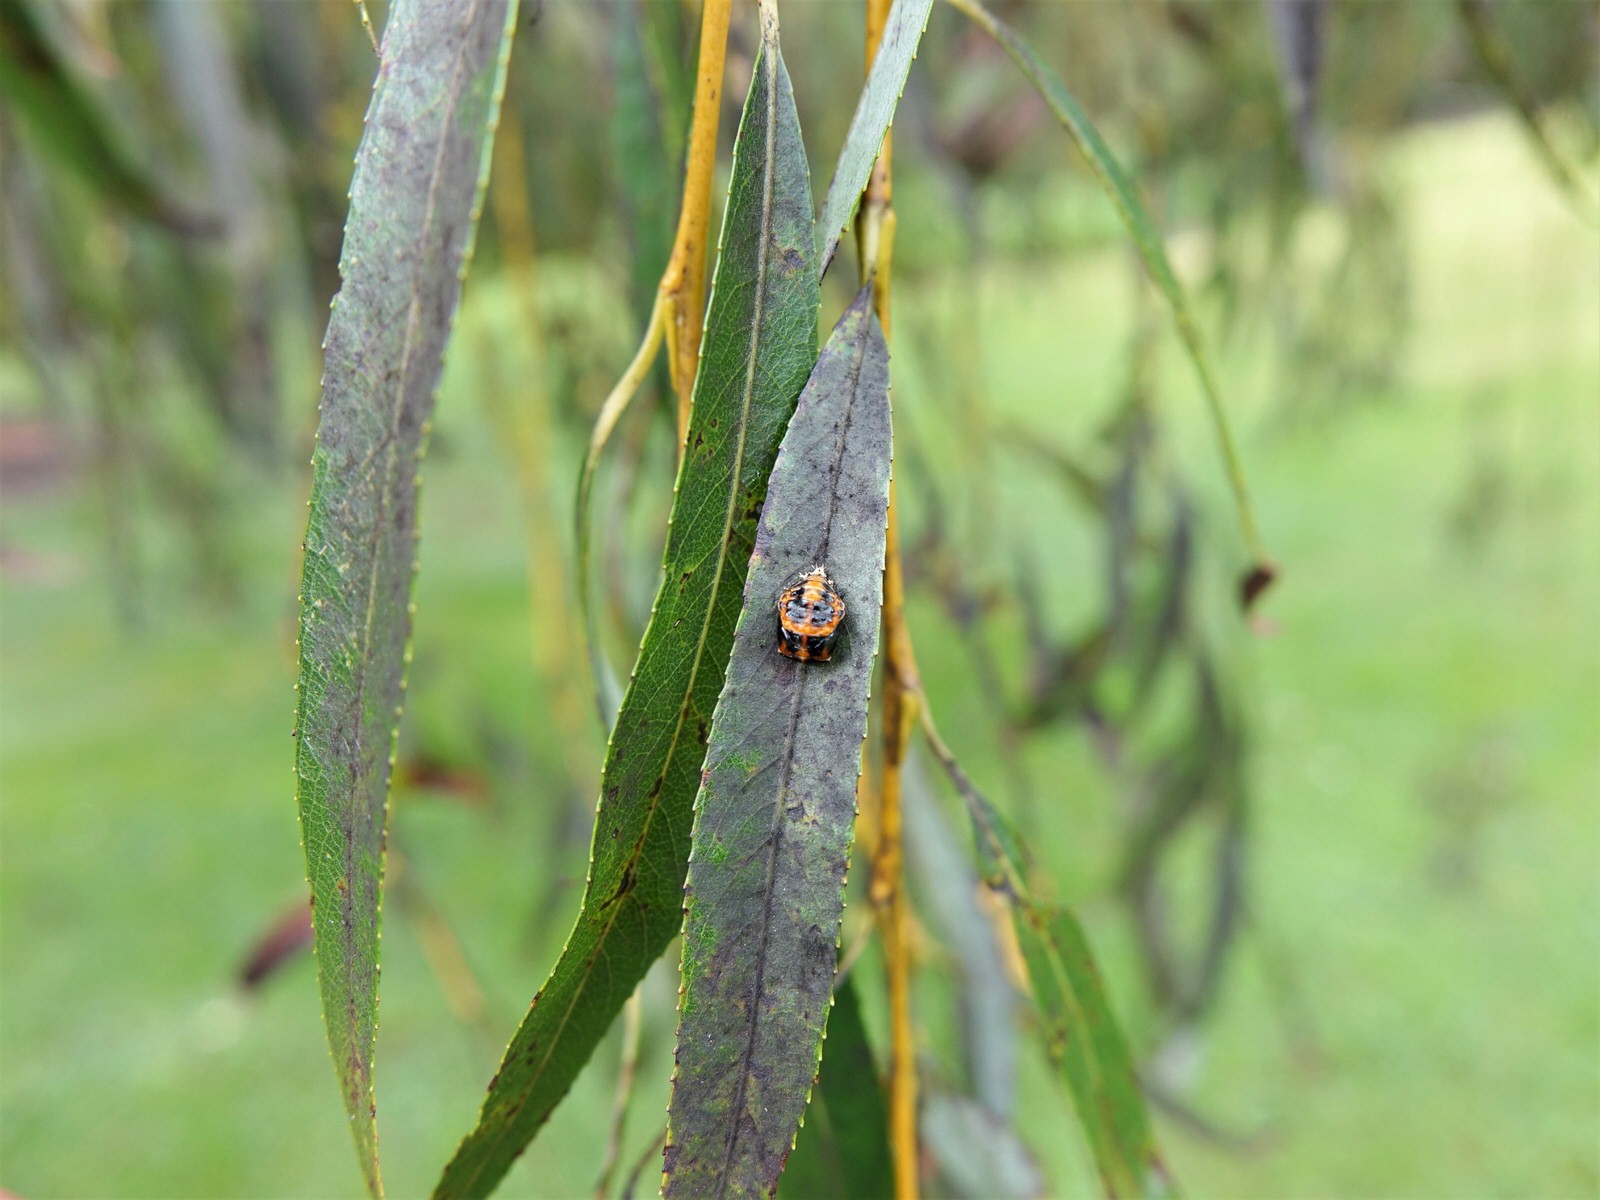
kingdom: Animalia
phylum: Arthropoda
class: Insecta
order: Coleoptera
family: Coccinellidae
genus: Harmonia
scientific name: Harmonia axyridis
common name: Harlequin ladybird
